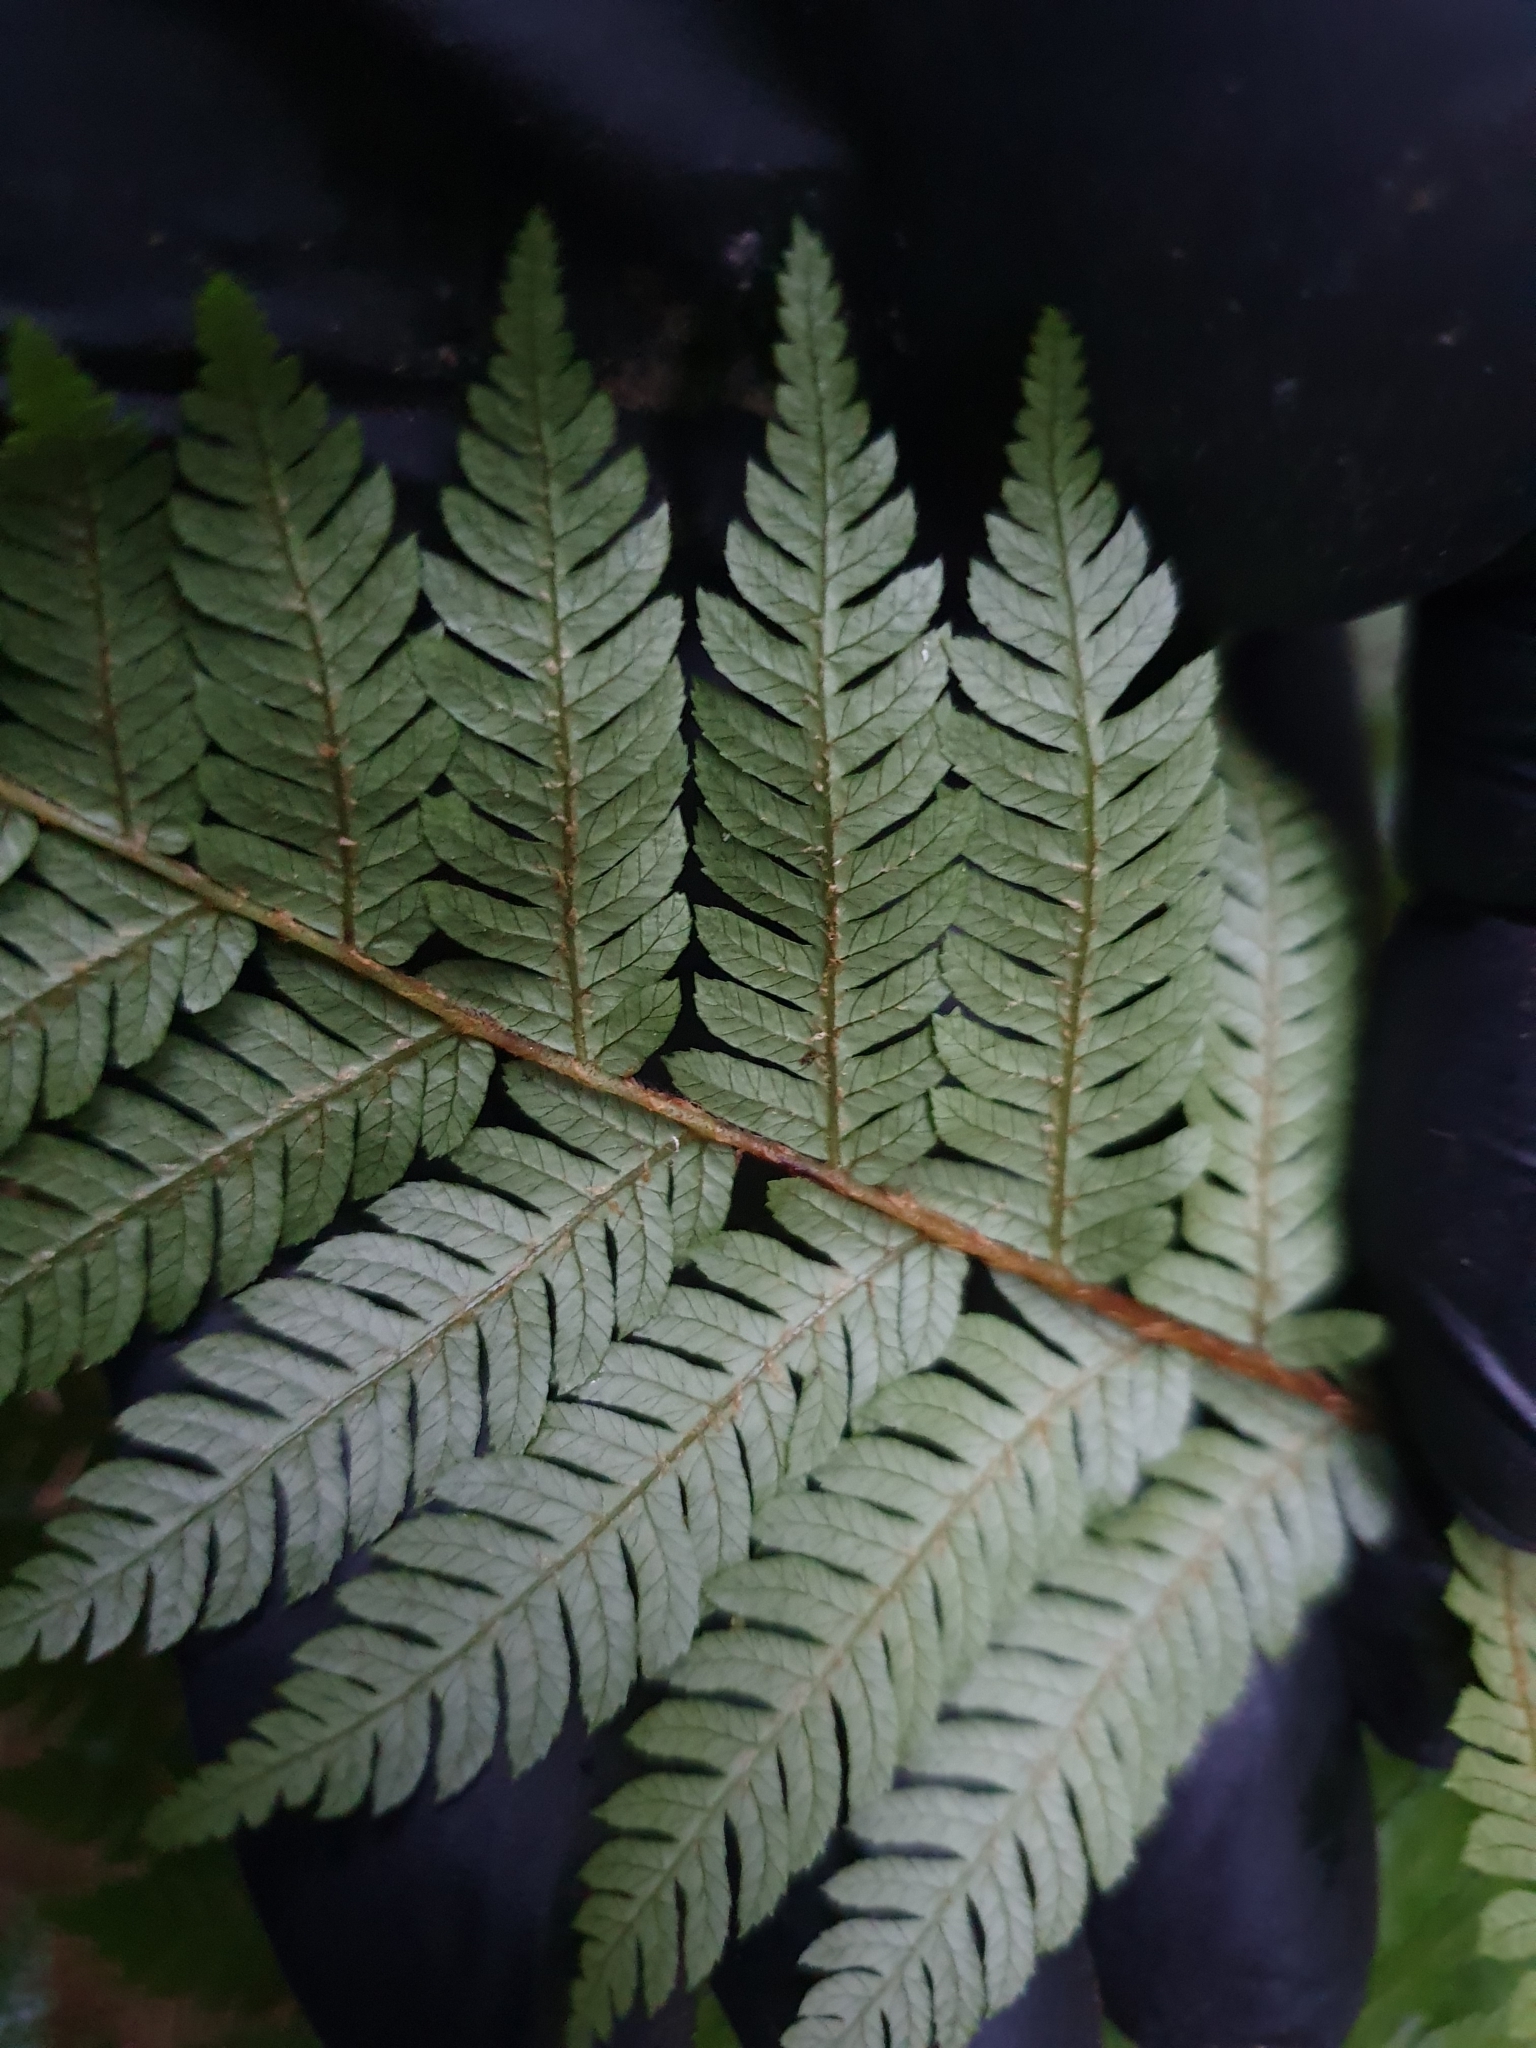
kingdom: Plantae
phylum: Tracheophyta
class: Polypodiopsida
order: Cyatheales
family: Cyatheaceae
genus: Alsophila
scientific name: Alsophila smithii
